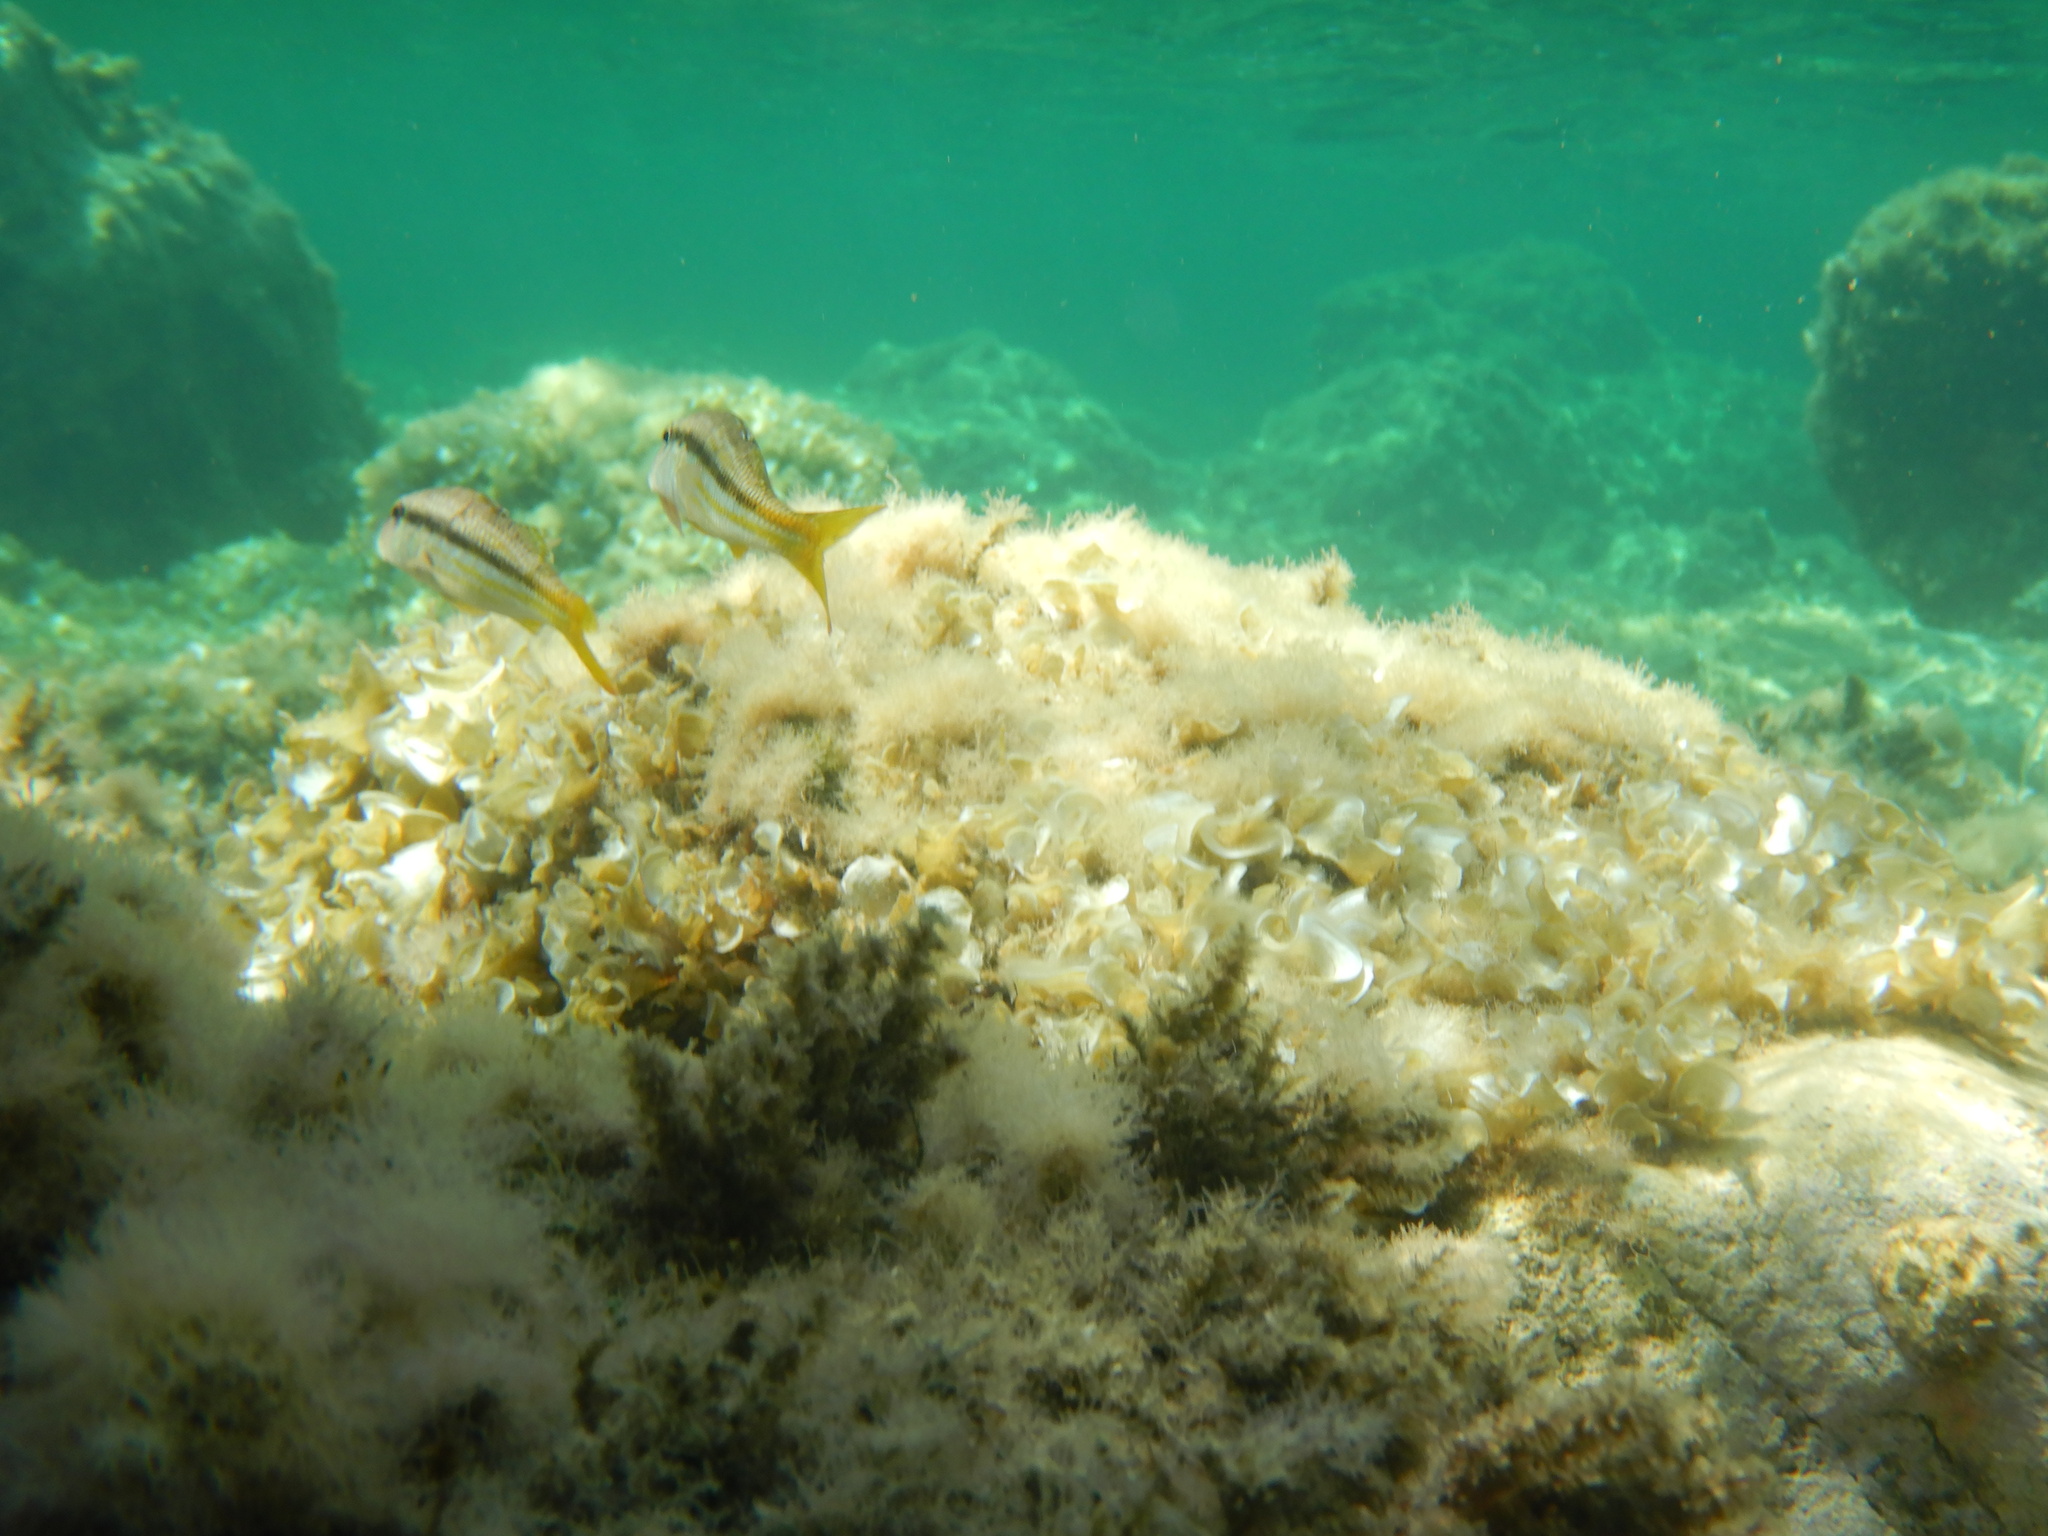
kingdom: Animalia
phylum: Chordata
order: Perciformes
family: Mullidae
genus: Mullus
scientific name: Mullus surmuletus
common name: Red mullet
